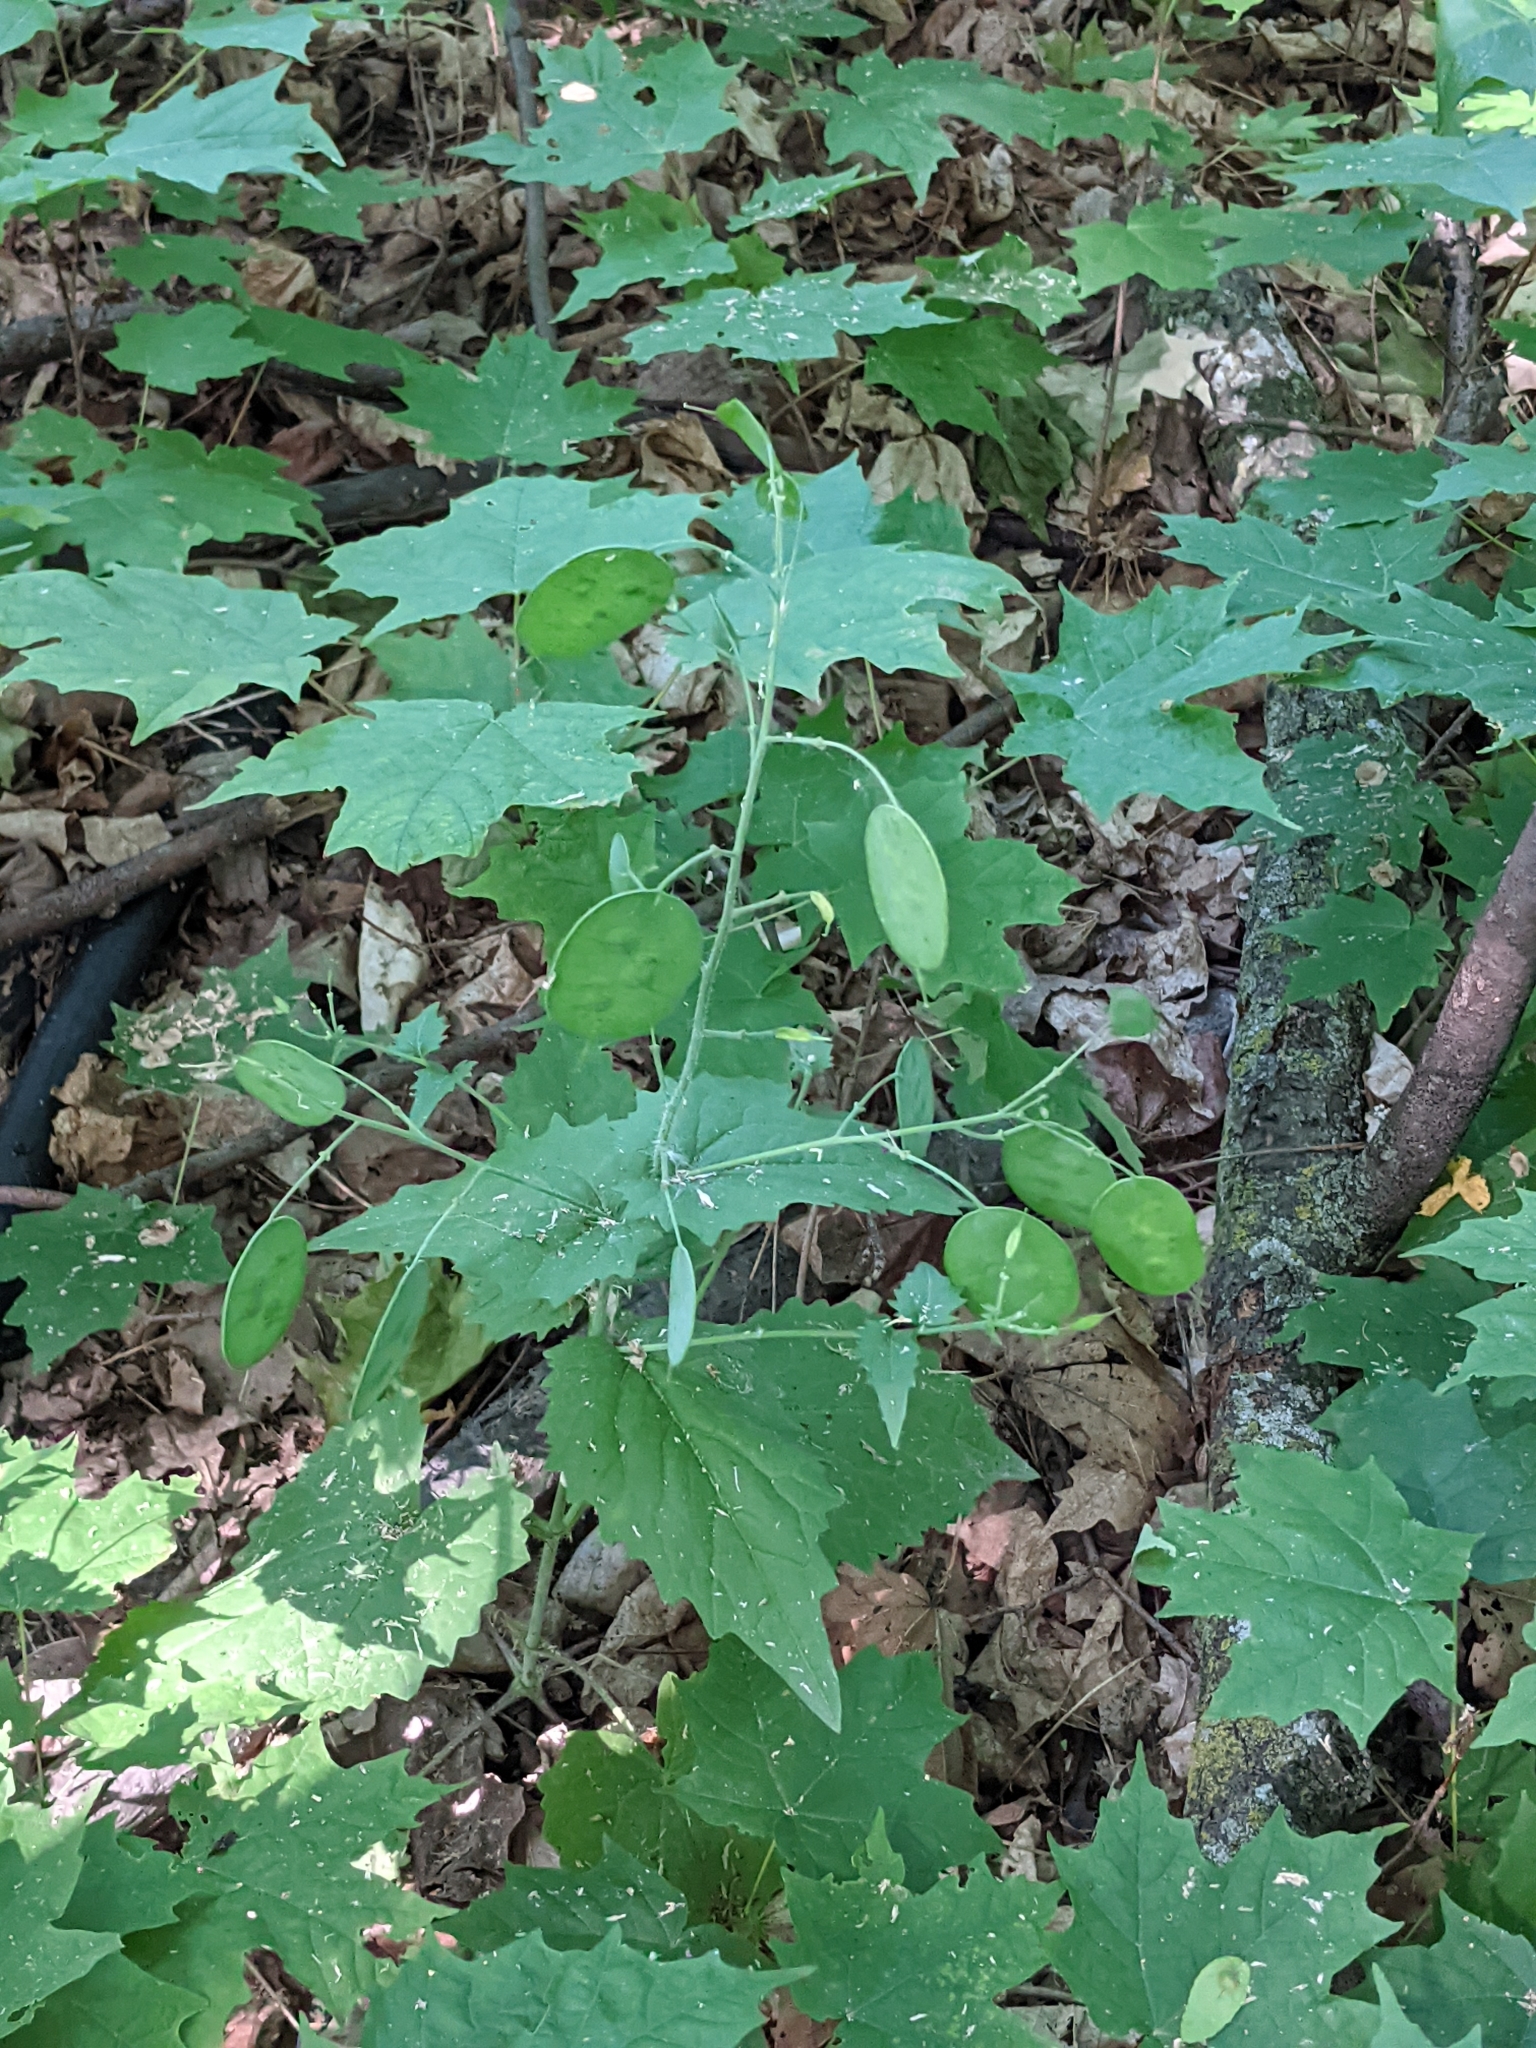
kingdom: Plantae
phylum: Tracheophyta
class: Magnoliopsida
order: Brassicales
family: Brassicaceae
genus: Lunaria
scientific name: Lunaria annua
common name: Honesty
